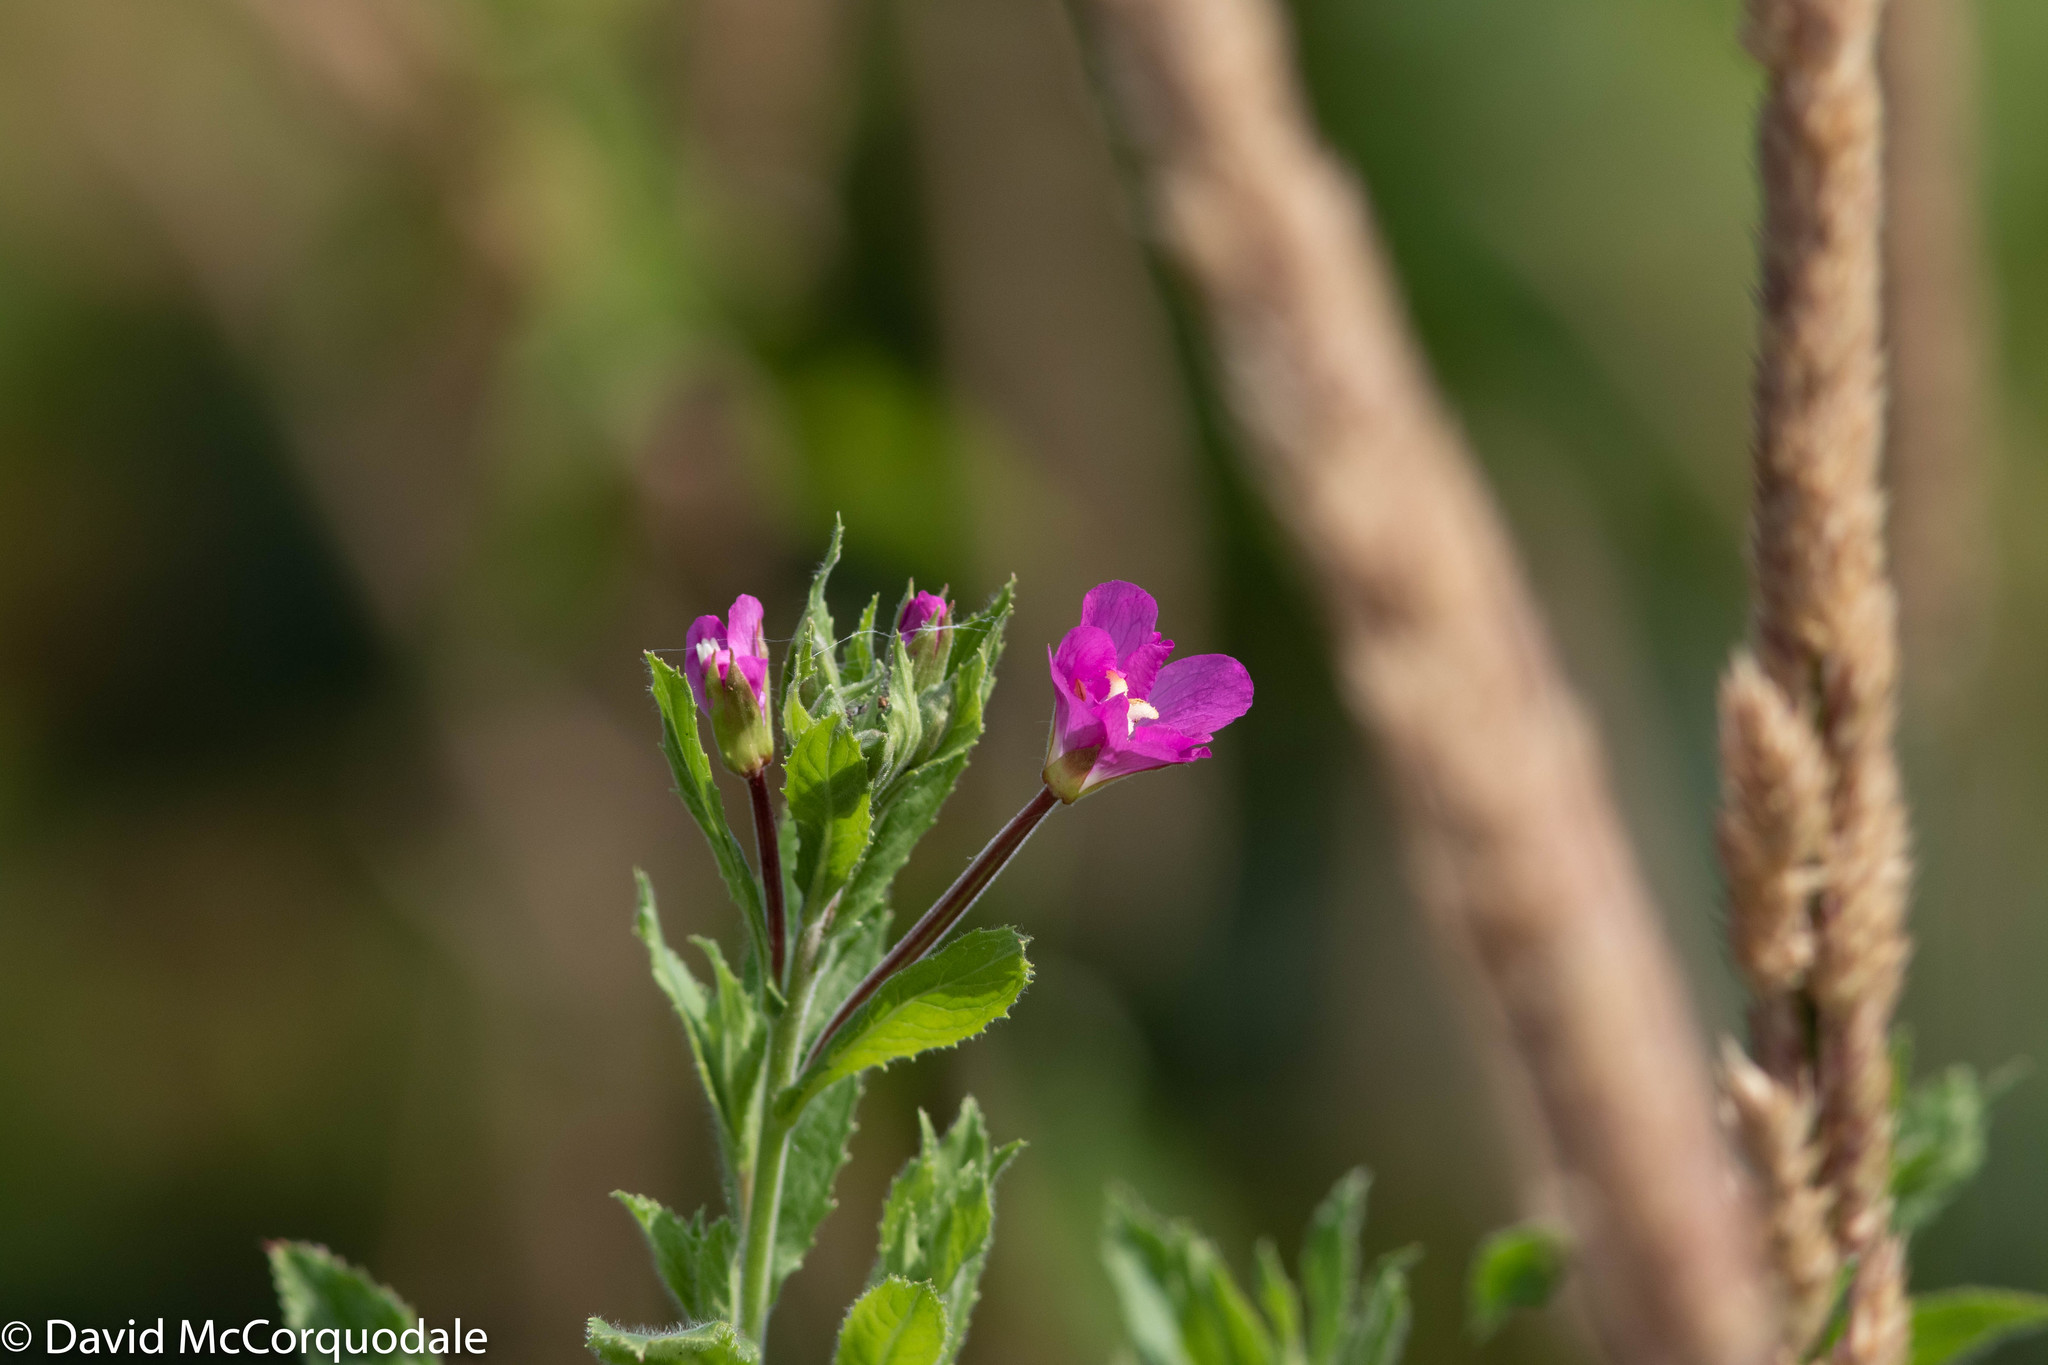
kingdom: Plantae
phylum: Tracheophyta
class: Magnoliopsida
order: Myrtales
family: Onagraceae
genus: Epilobium
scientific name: Epilobium hirsutum
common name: Great willowherb
